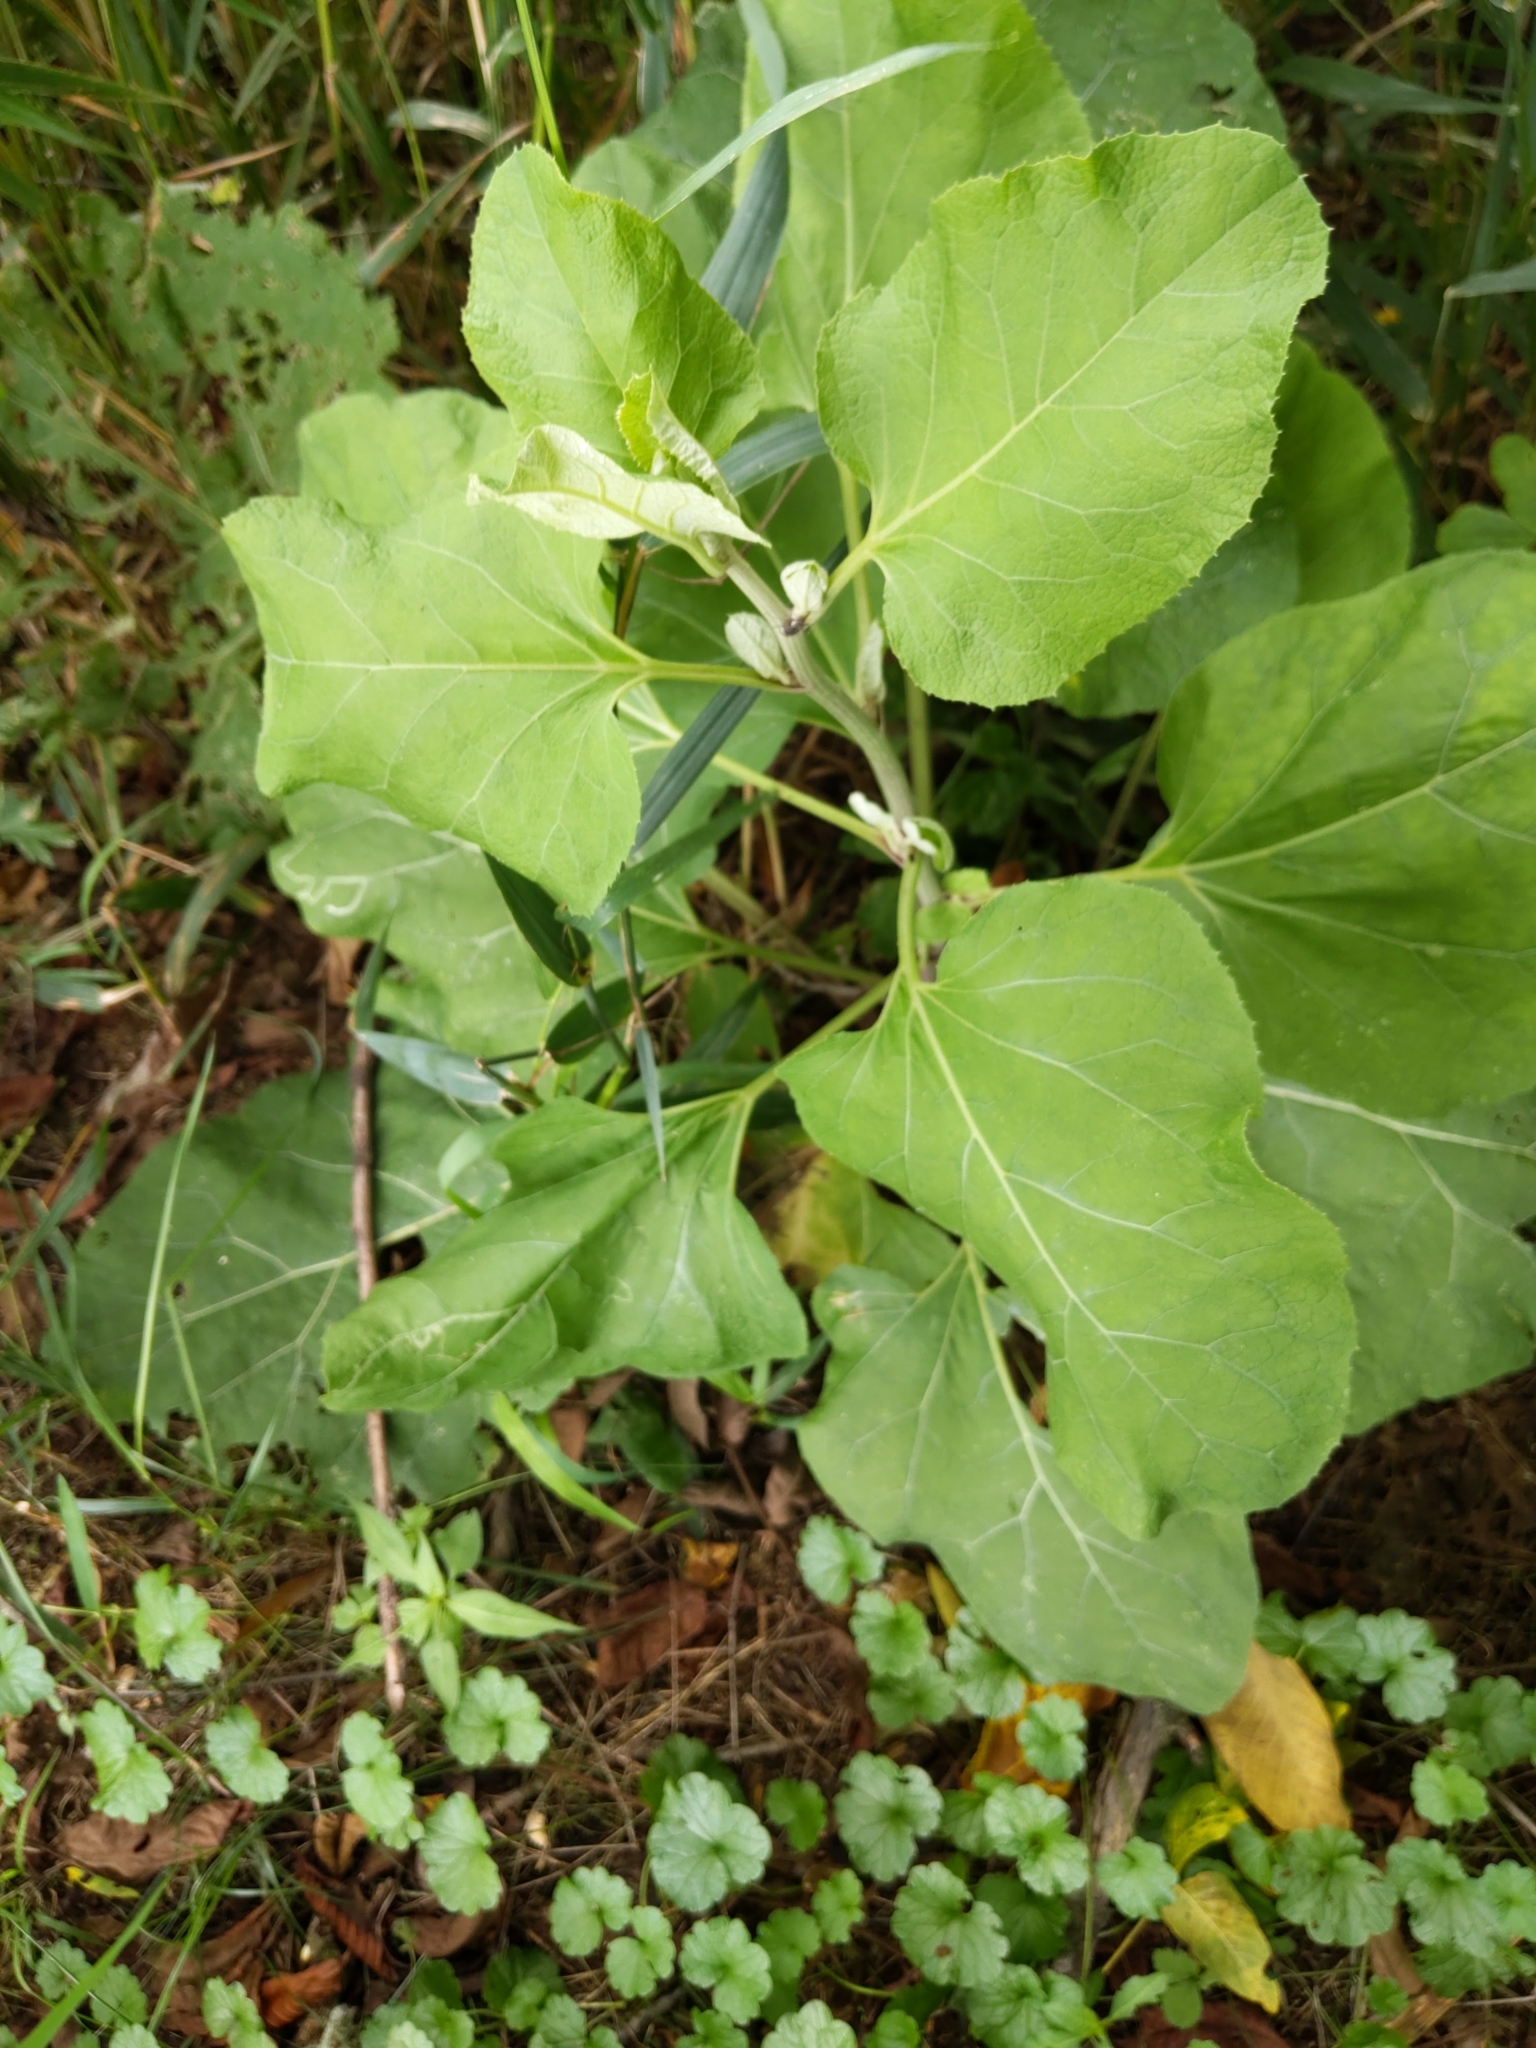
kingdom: Plantae
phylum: Tracheophyta
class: Magnoliopsida
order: Asterales
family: Asteraceae
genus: Arctium
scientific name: Arctium
